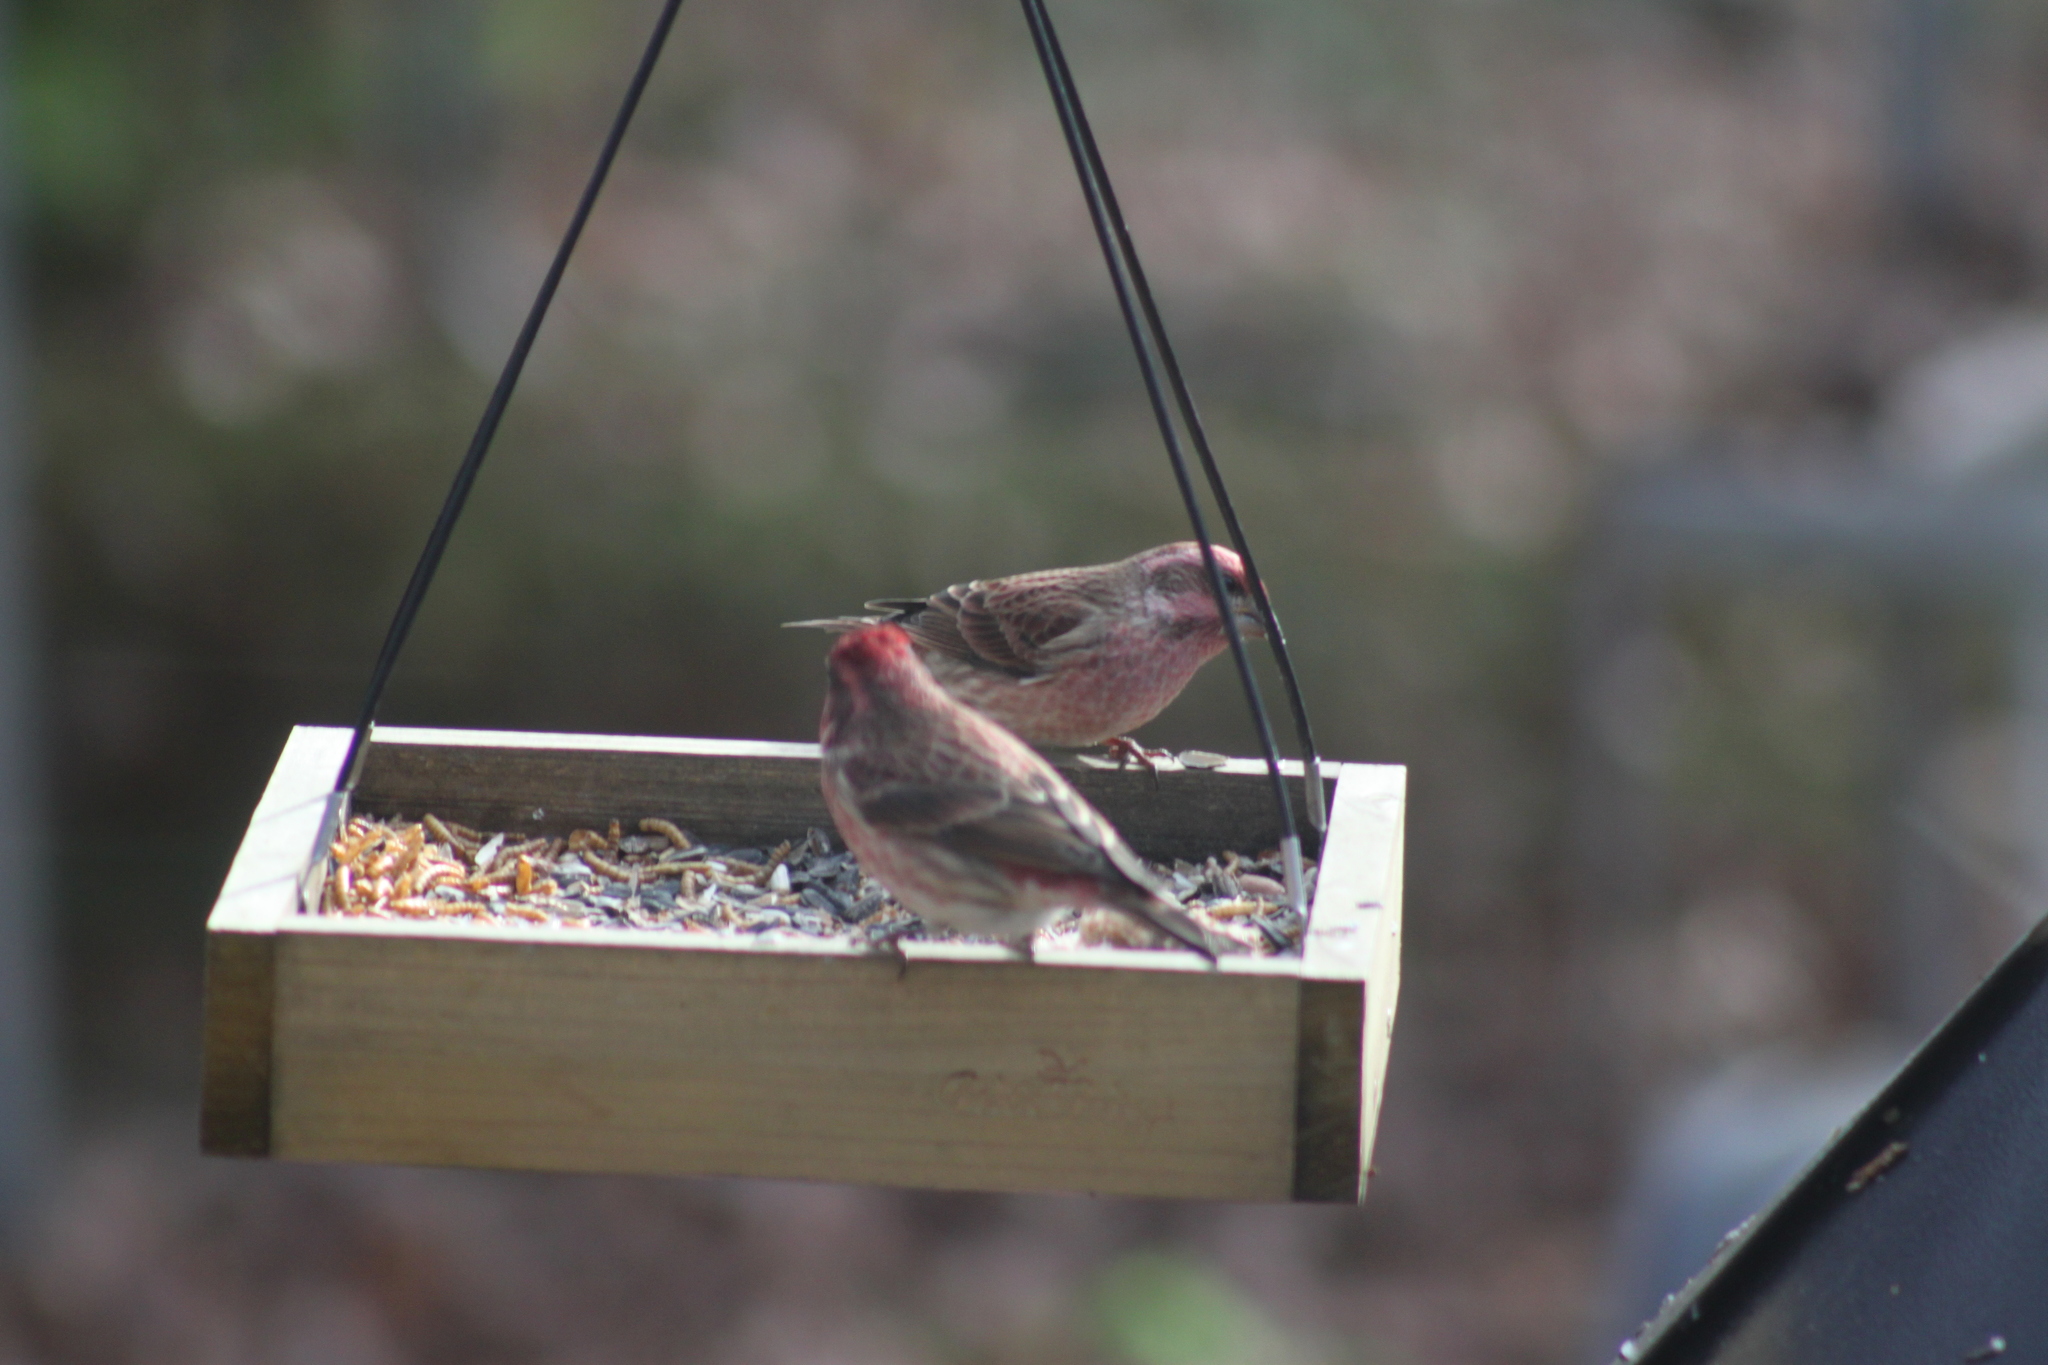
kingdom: Animalia
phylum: Chordata
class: Aves
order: Passeriformes
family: Fringillidae
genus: Haemorhous
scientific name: Haemorhous purpureus
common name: Purple finch
